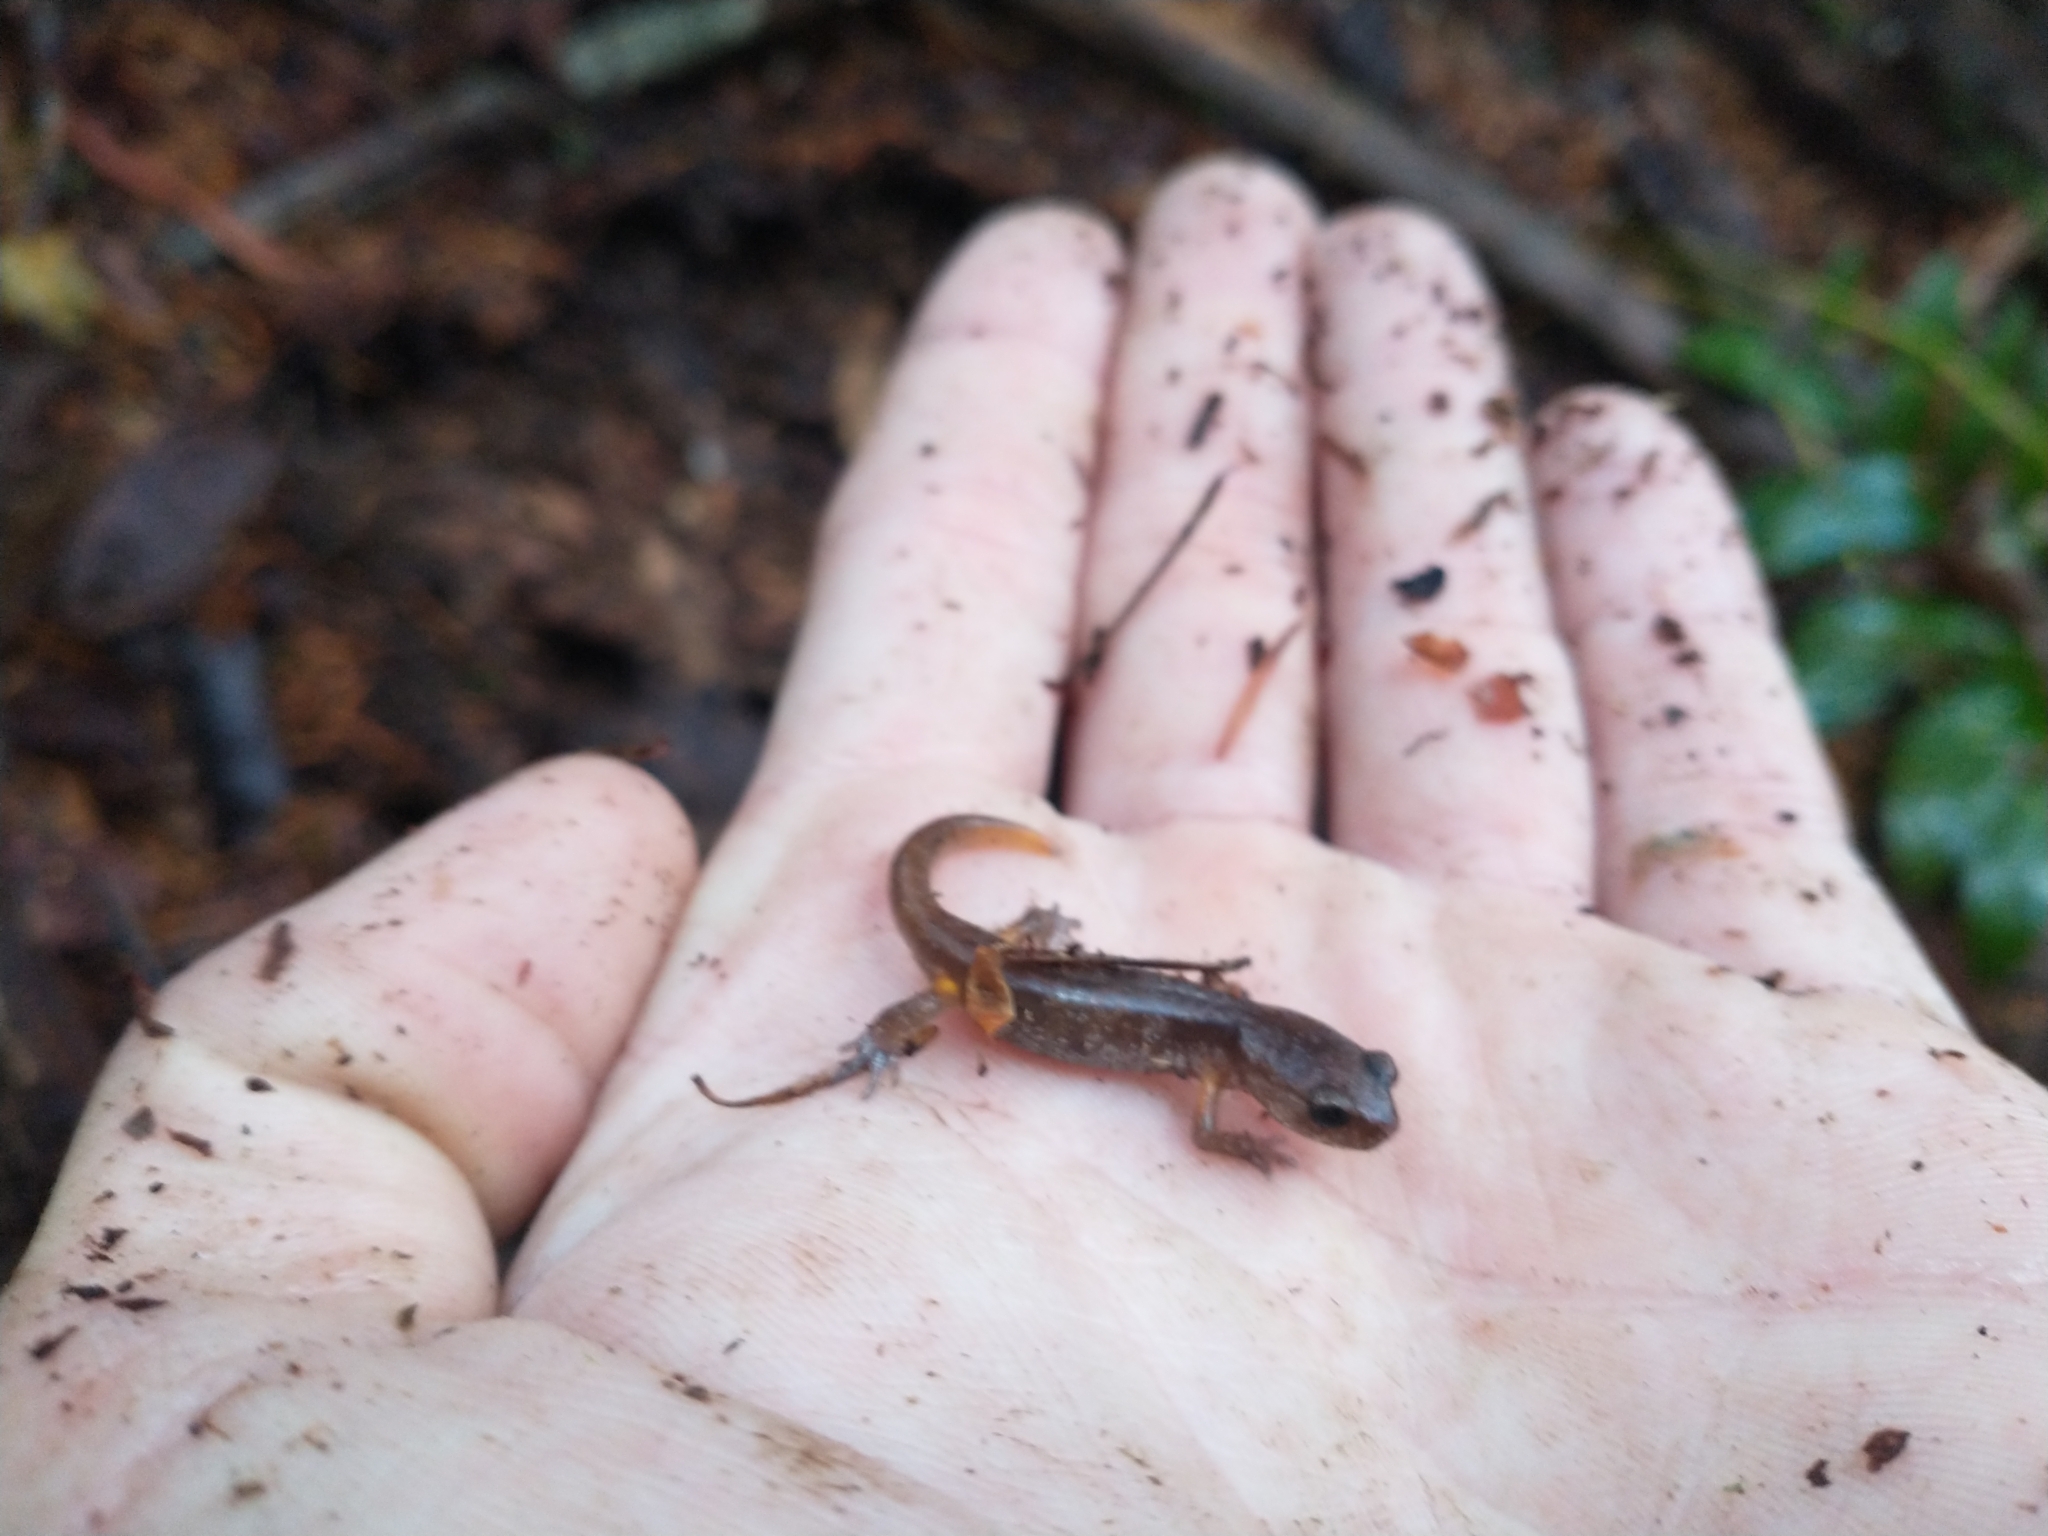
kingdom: Animalia
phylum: Chordata
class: Amphibia
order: Caudata
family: Plethodontidae
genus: Ensatina
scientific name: Ensatina eschscholtzii
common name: Ensatina
